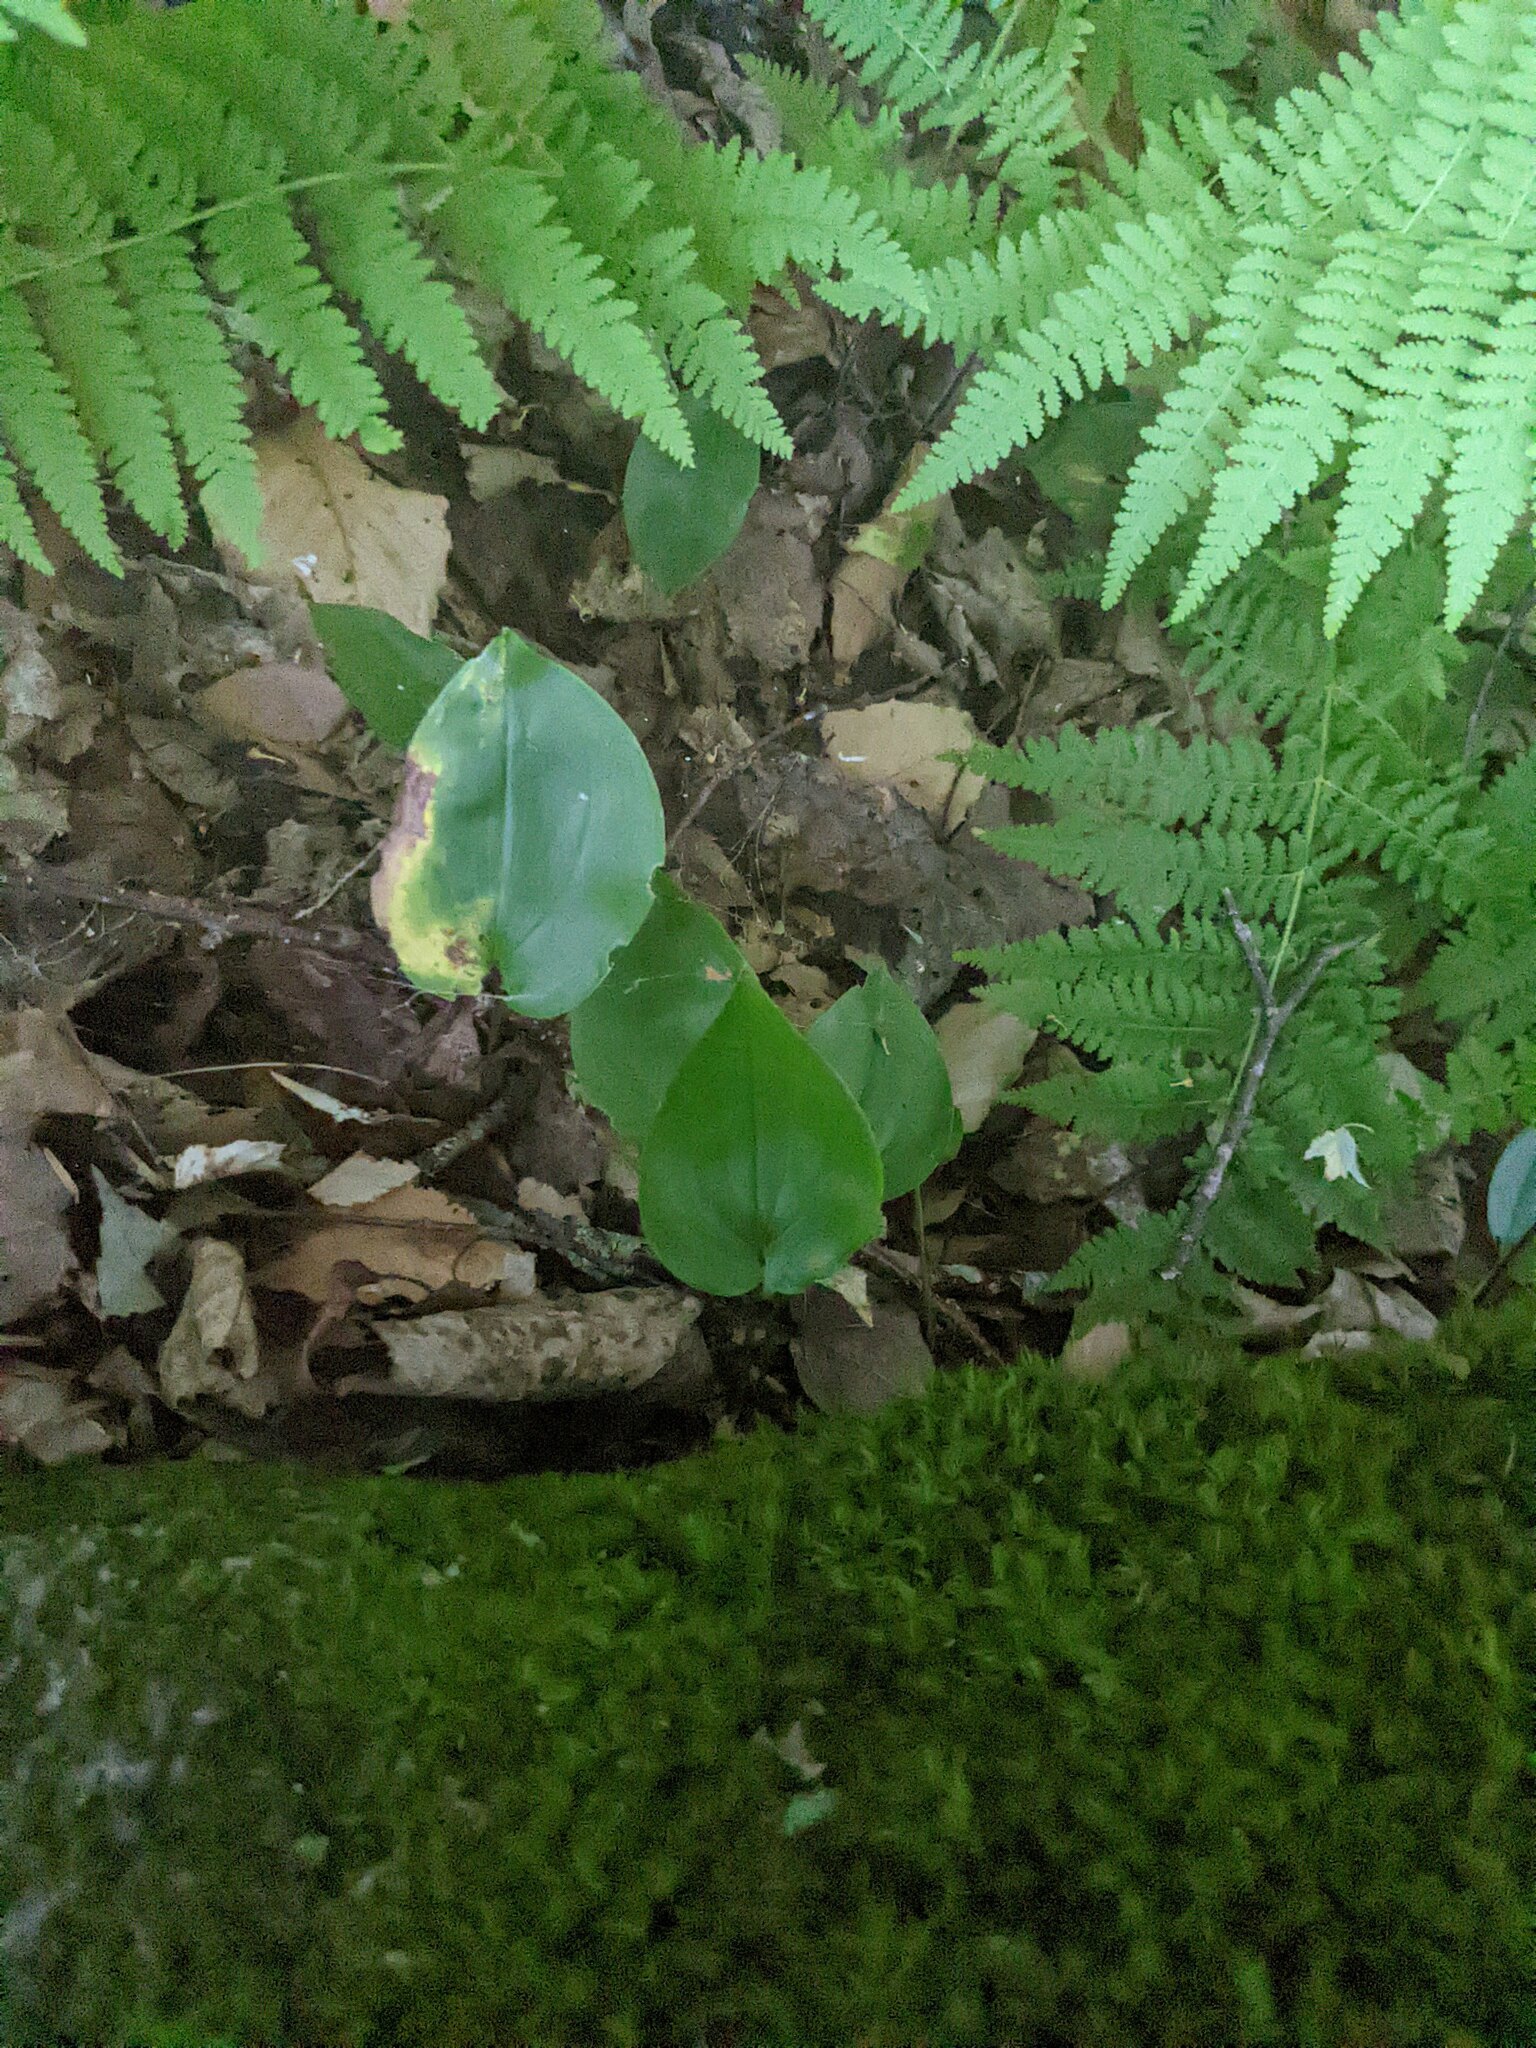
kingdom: Plantae
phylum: Tracheophyta
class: Liliopsida
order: Asparagales
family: Asparagaceae
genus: Maianthemum
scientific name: Maianthemum canadense
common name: False lily-of-the-valley
